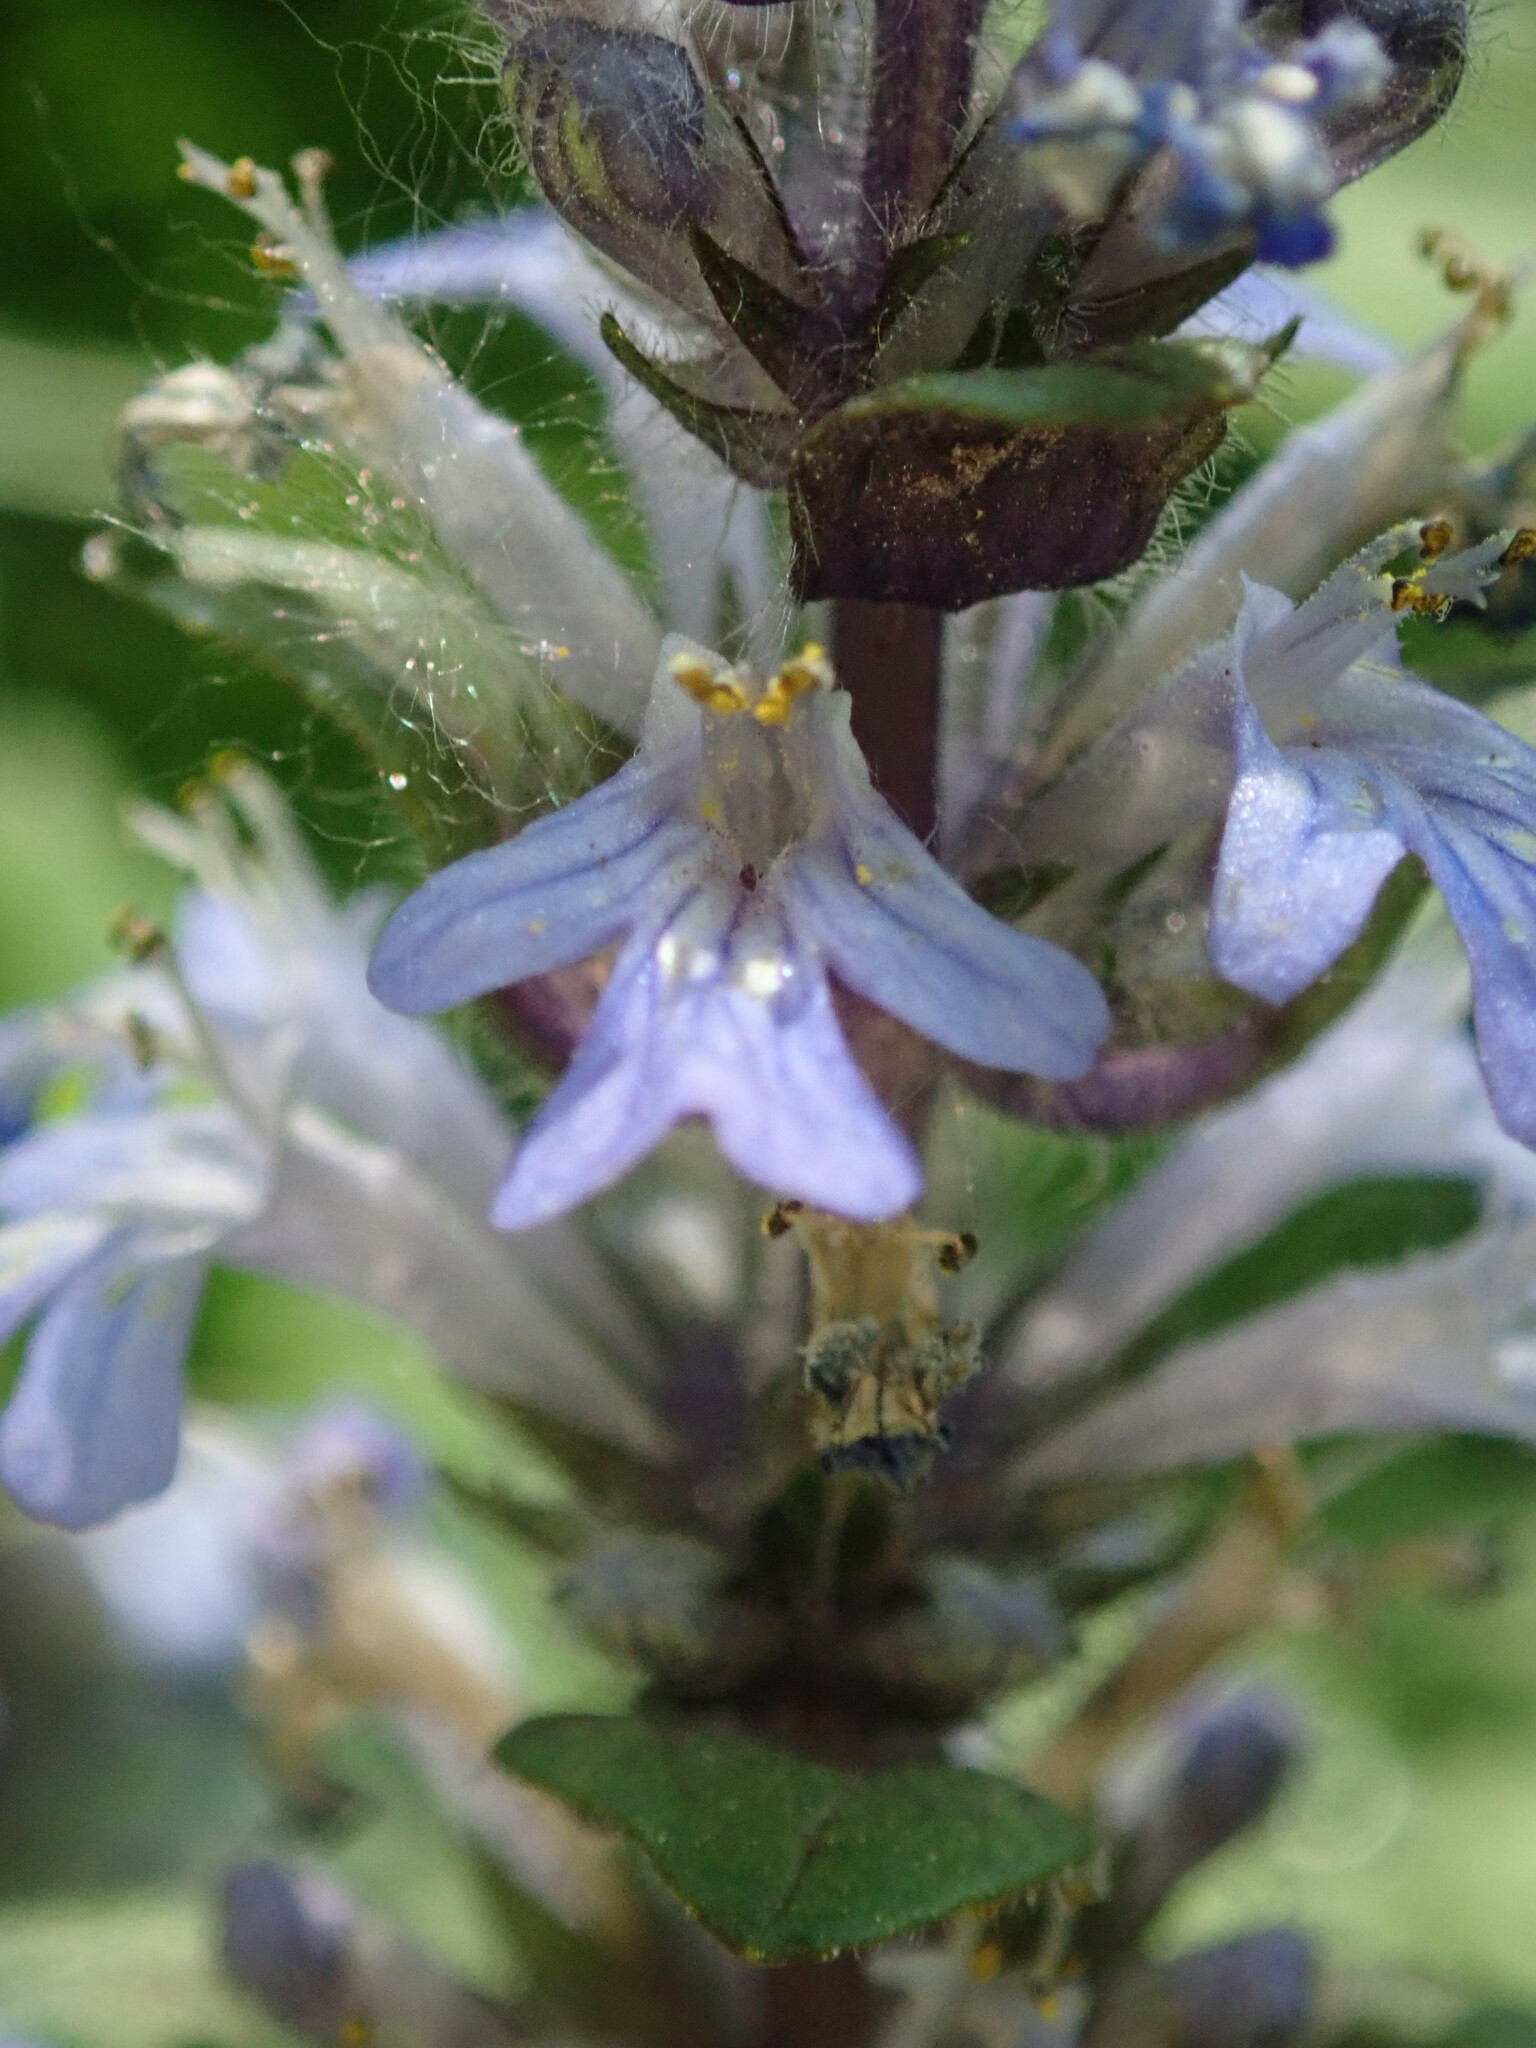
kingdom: Plantae
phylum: Tracheophyta
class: Magnoliopsida
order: Lamiales
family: Lamiaceae
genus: Ajuga
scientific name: Ajuga reptans
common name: Bugle
